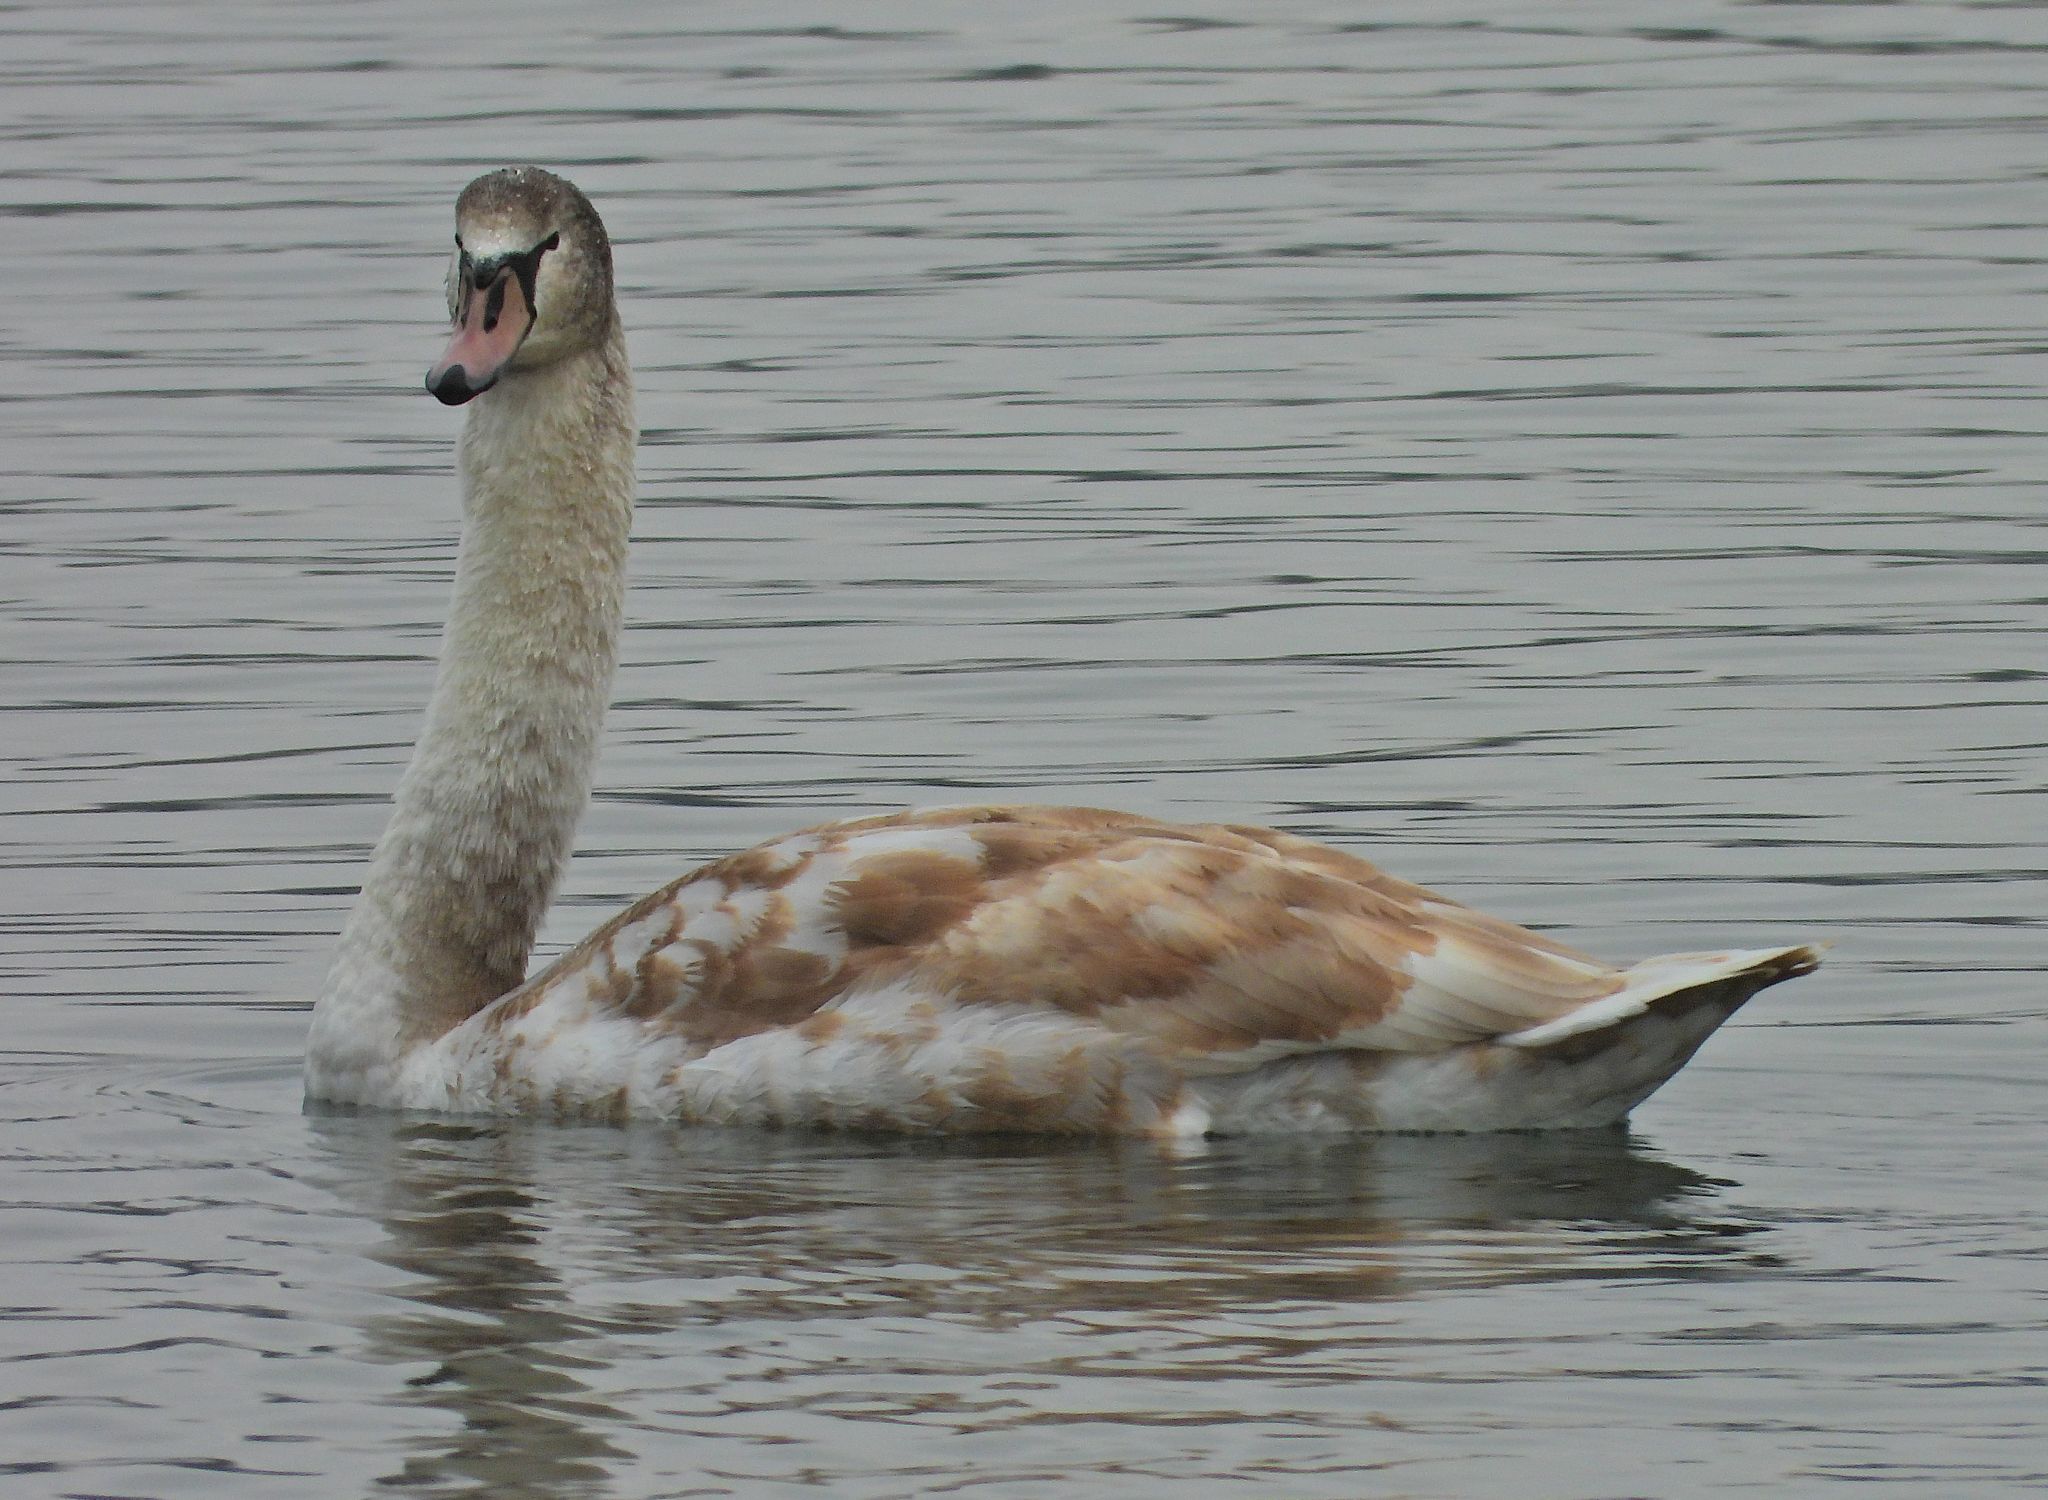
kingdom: Animalia
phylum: Chordata
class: Aves
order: Anseriformes
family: Anatidae
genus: Cygnus
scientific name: Cygnus olor
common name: Mute swan
